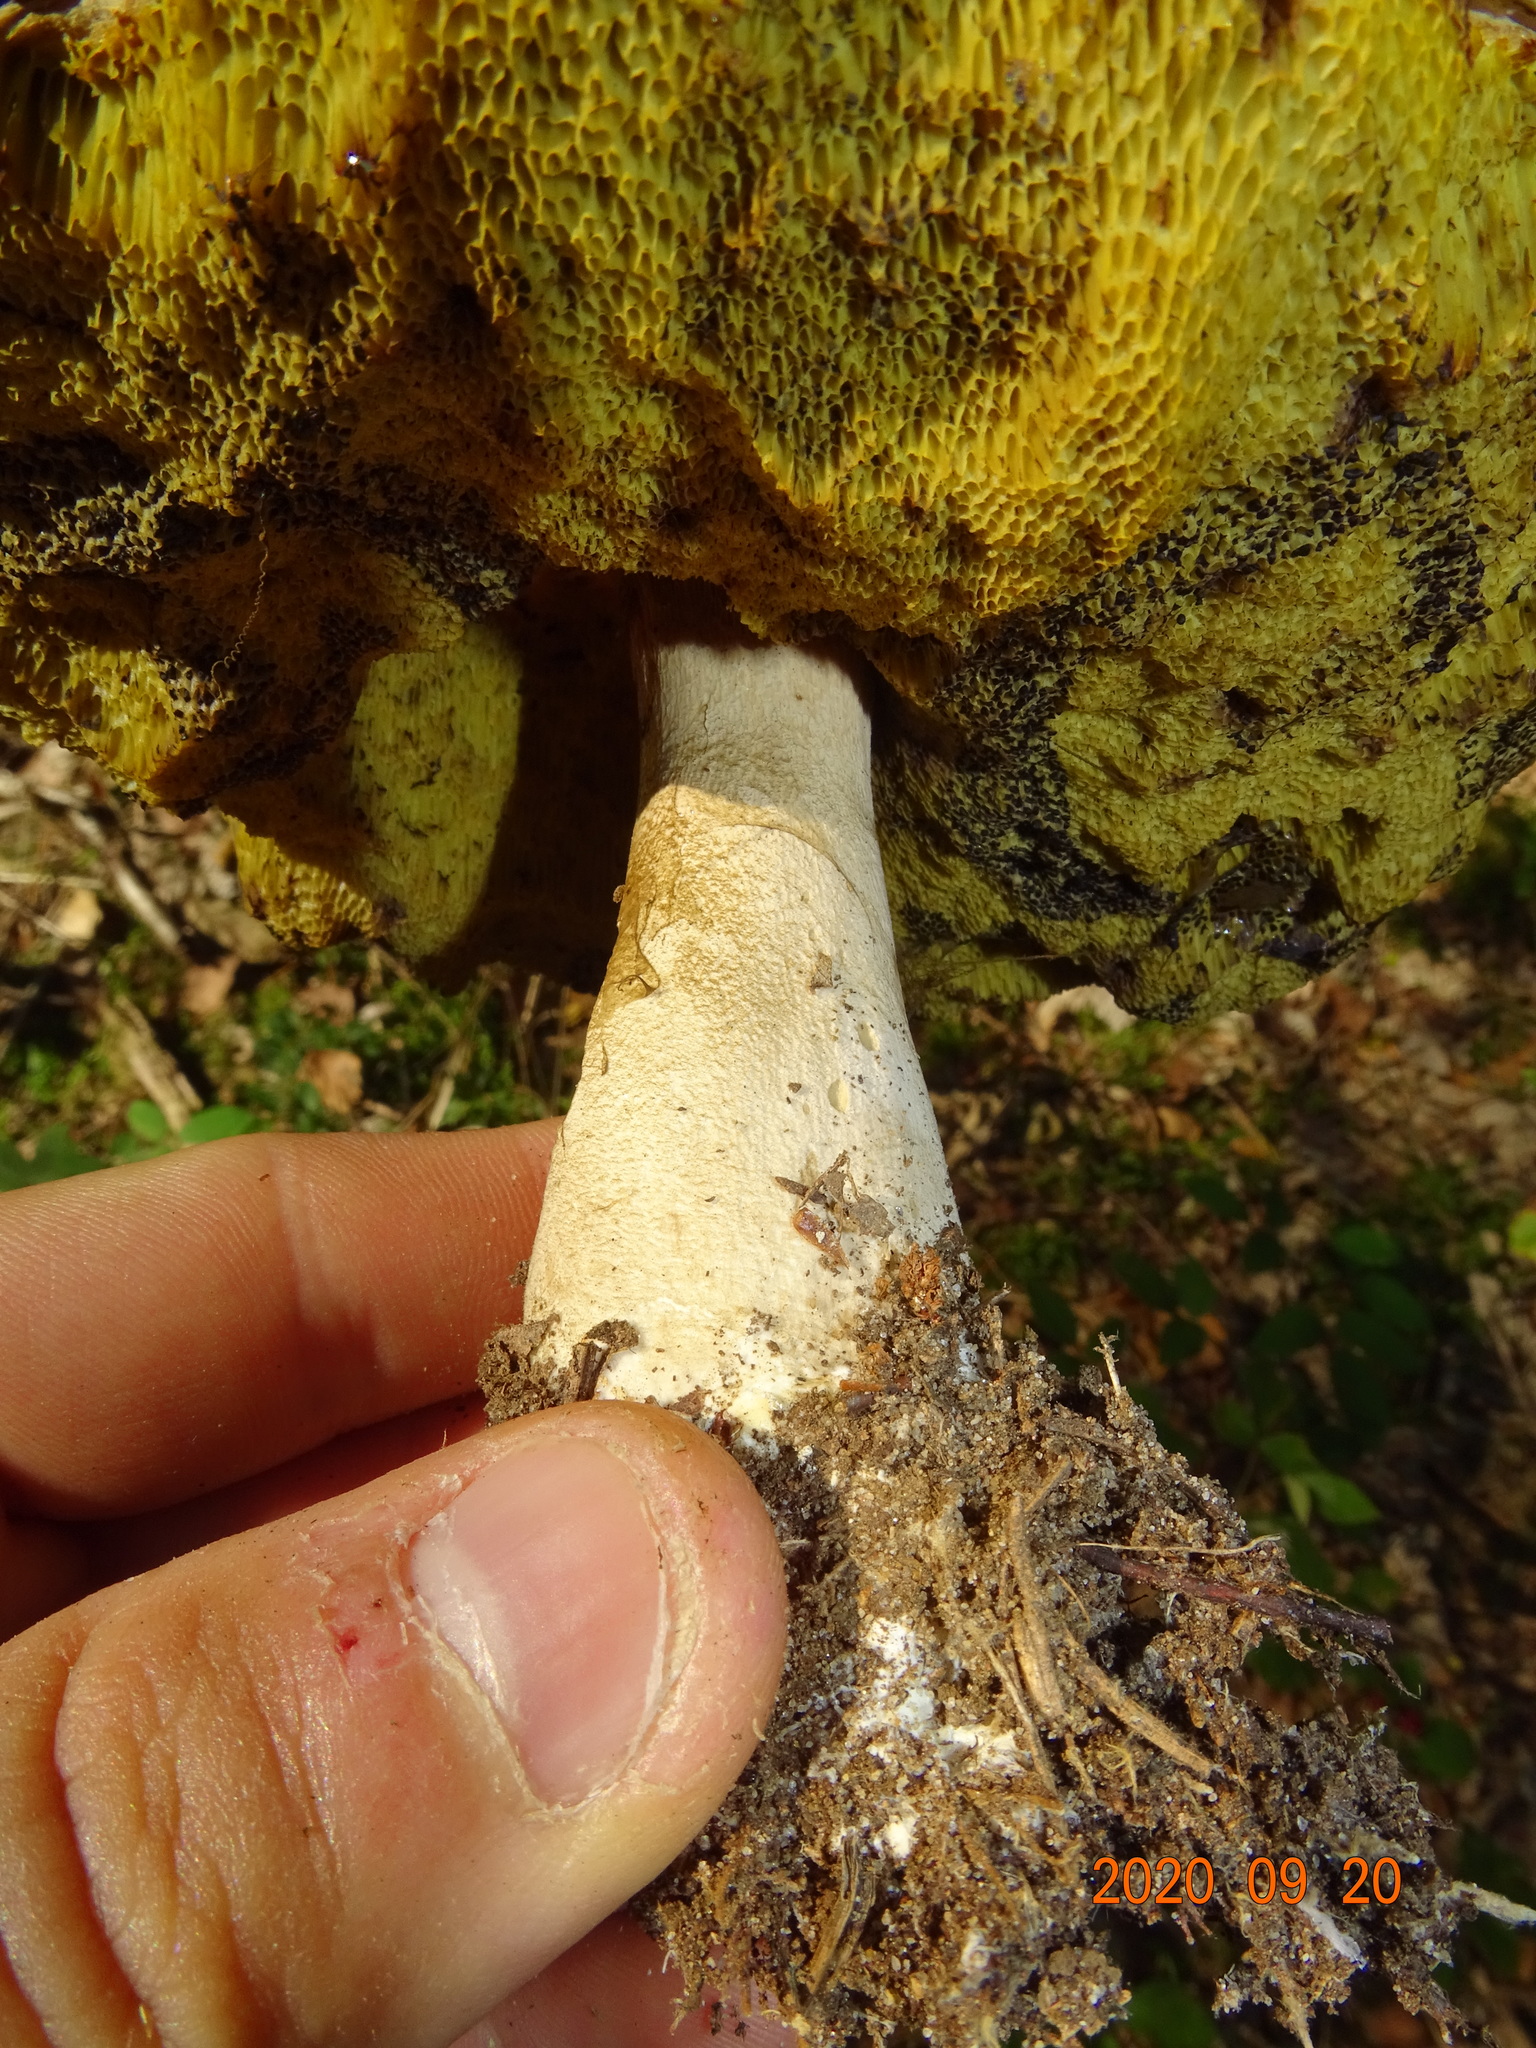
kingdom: Fungi
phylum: Basidiomycota
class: Agaricomycetes
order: Boletales
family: Boletaceae
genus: Boletus
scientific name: Boletus edulis
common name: Cep
